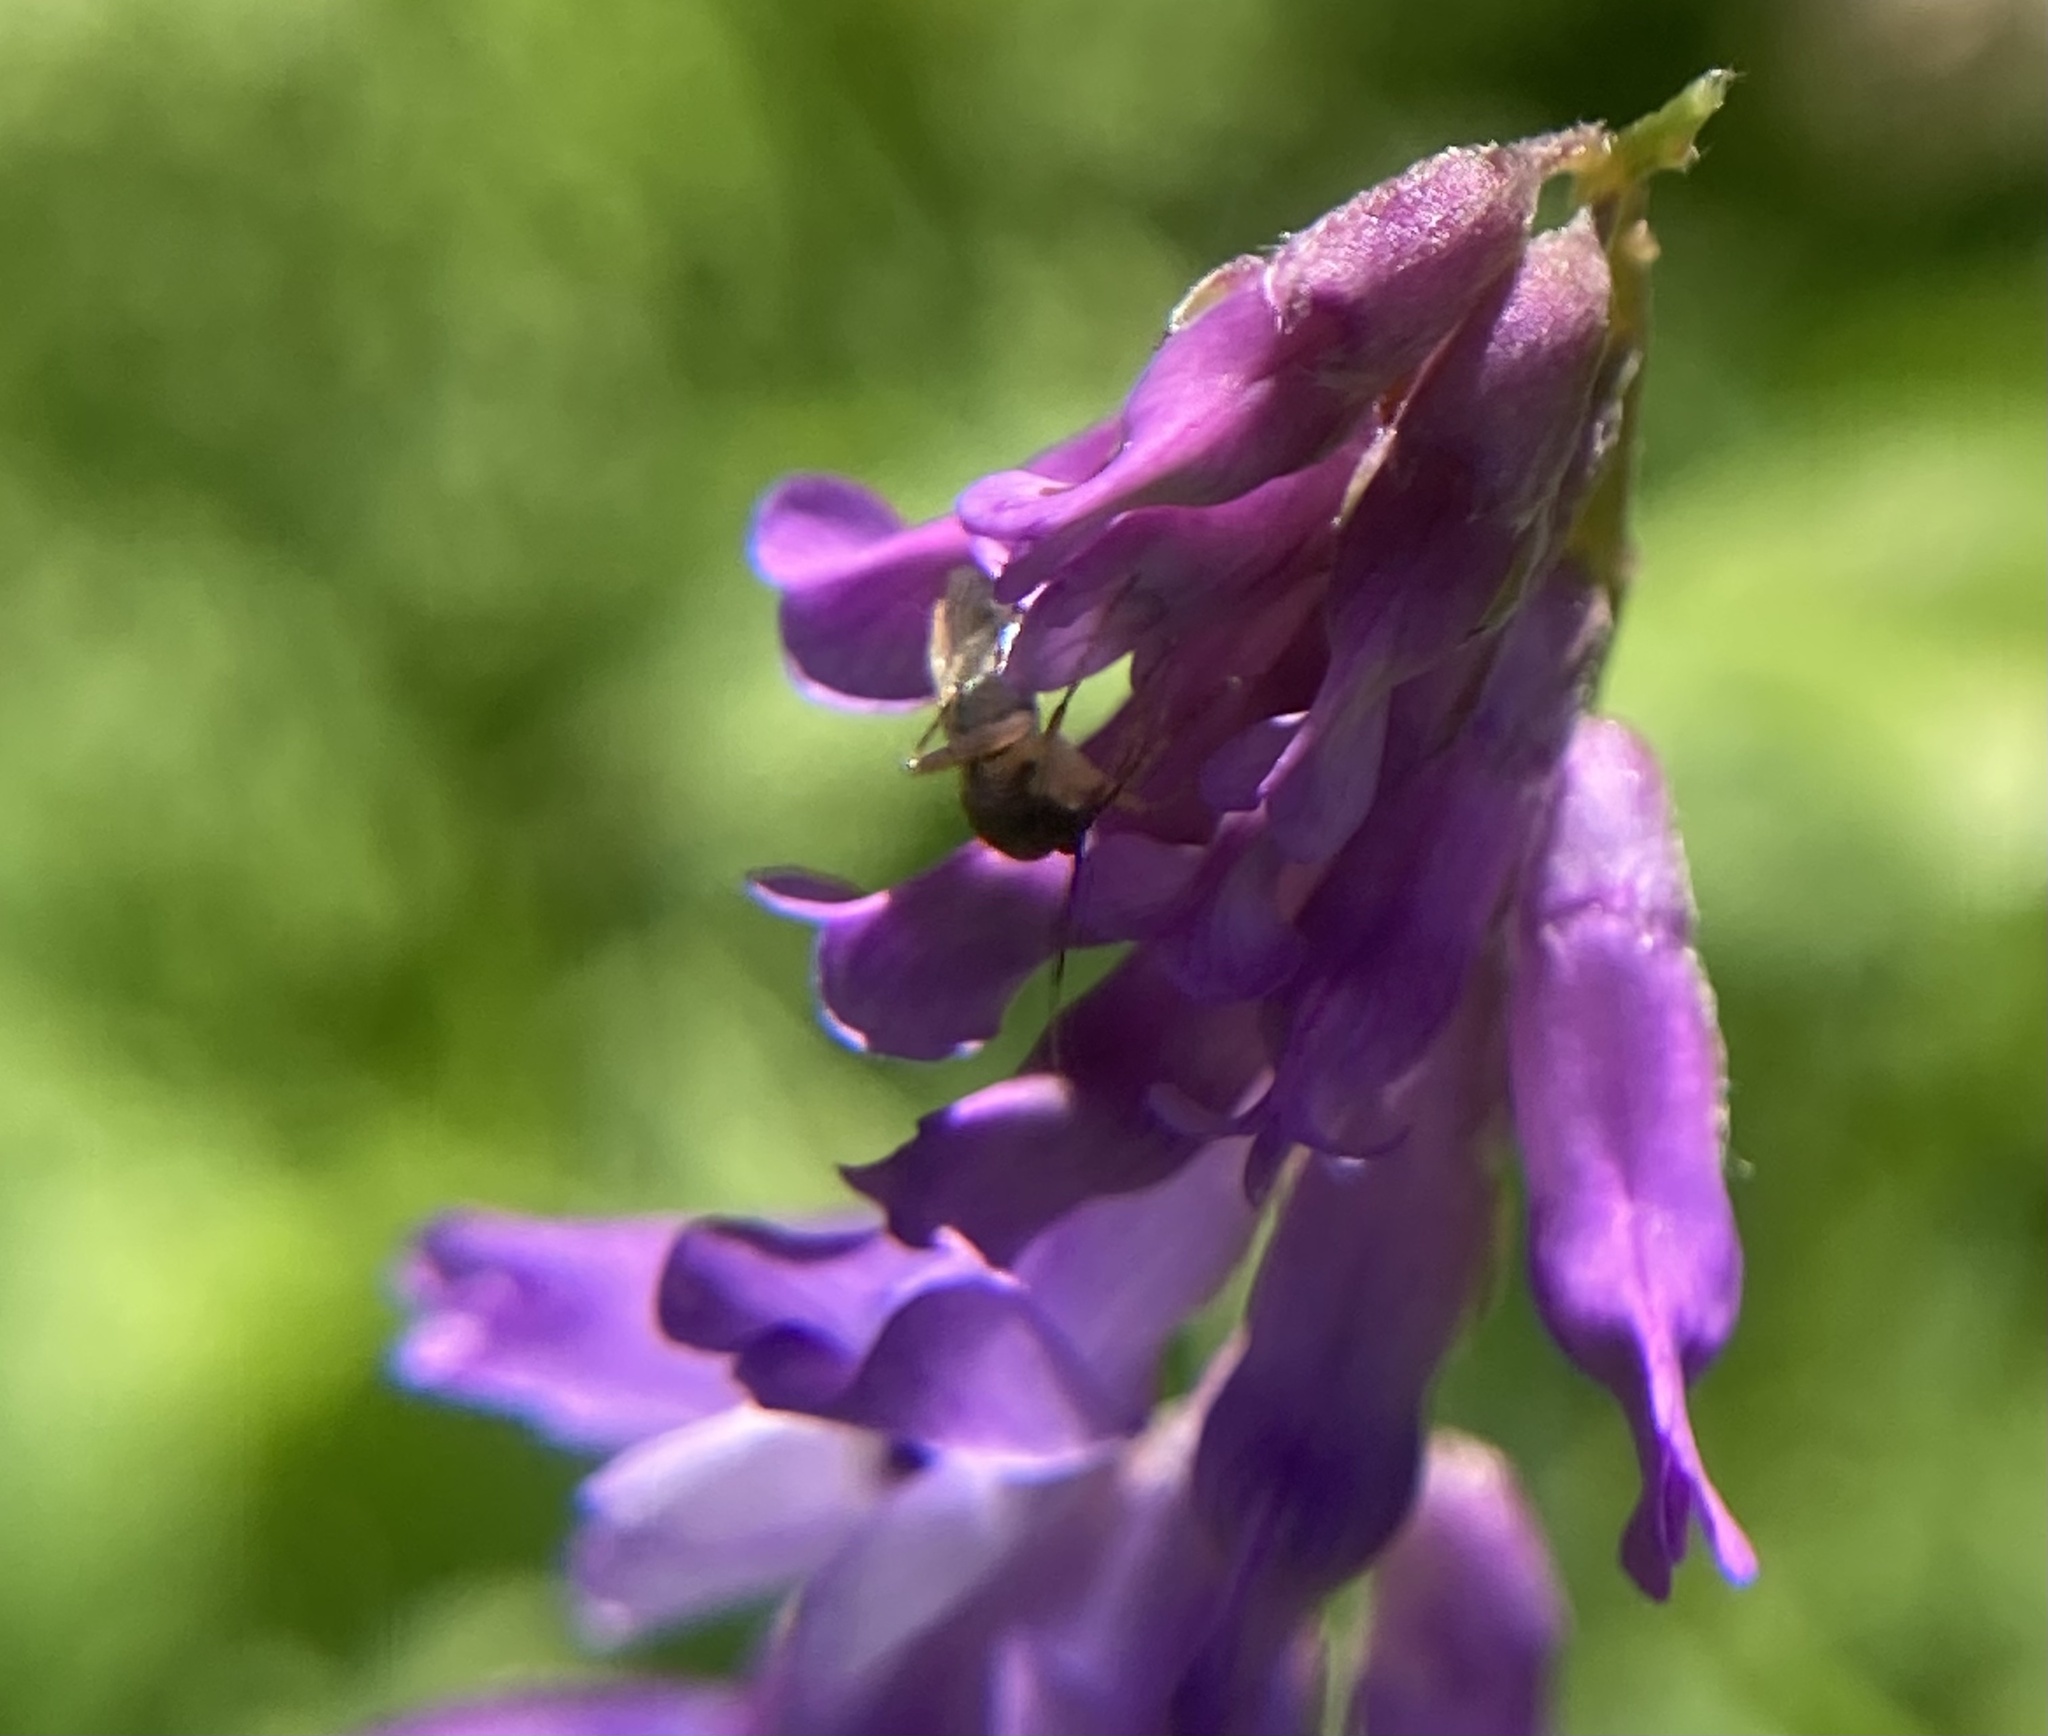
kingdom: Plantae
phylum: Tracheophyta
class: Magnoliopsida
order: Fabales
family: Fabaceae
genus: Vicia
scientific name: Vicia cracca
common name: Bird vetch
